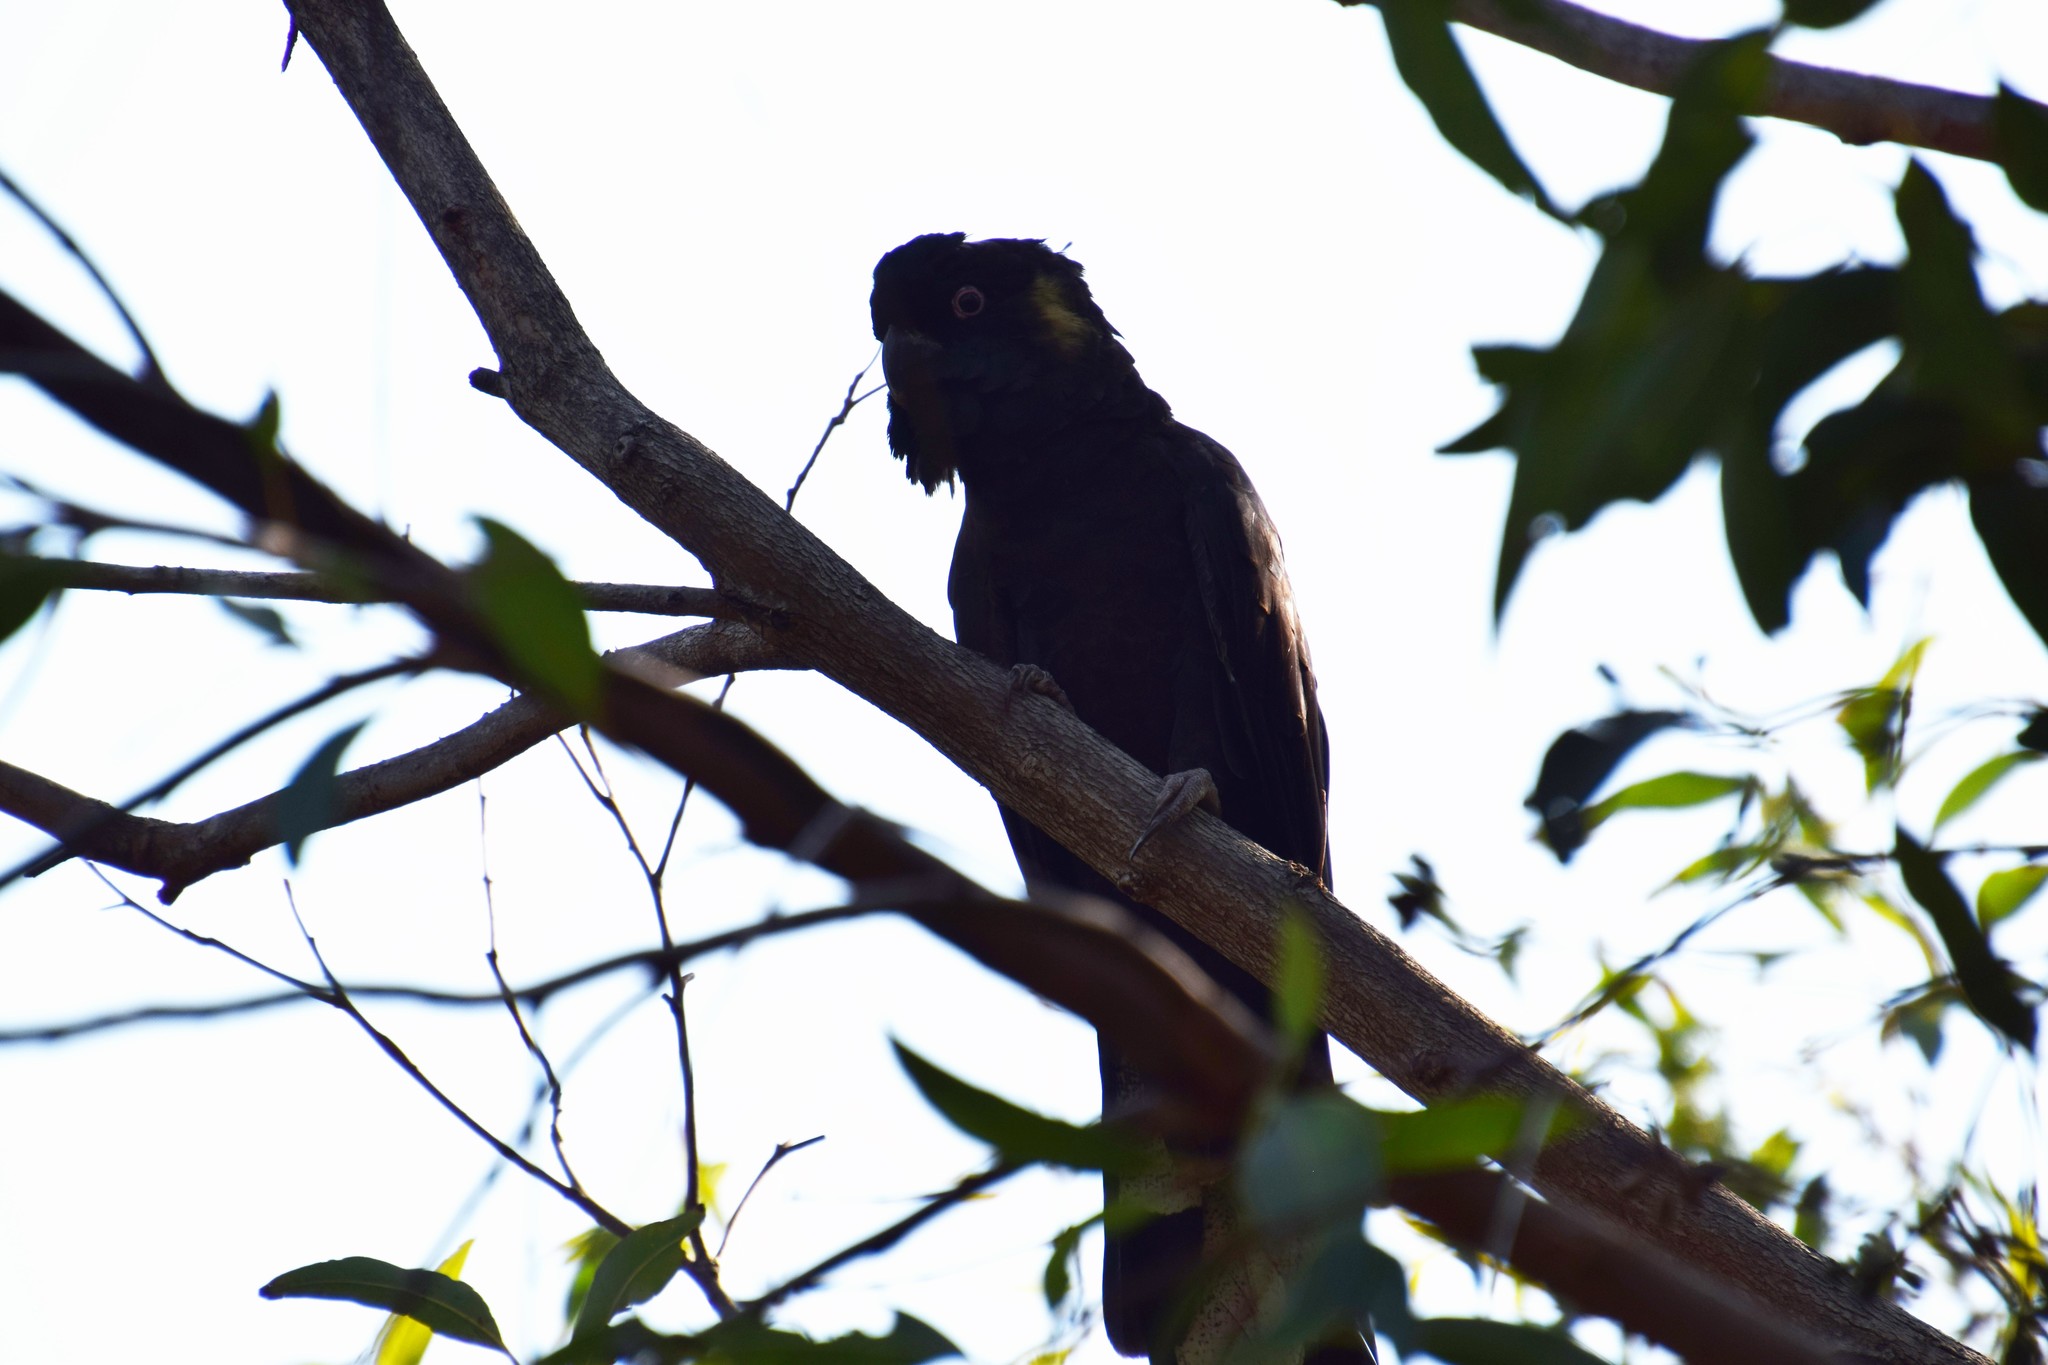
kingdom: Animalia
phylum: Chordata
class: Aves
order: Psittaciformes
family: Cacatuidae
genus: Zanda
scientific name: Zanda funerea
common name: Yellow-tailed black-cockatoo
